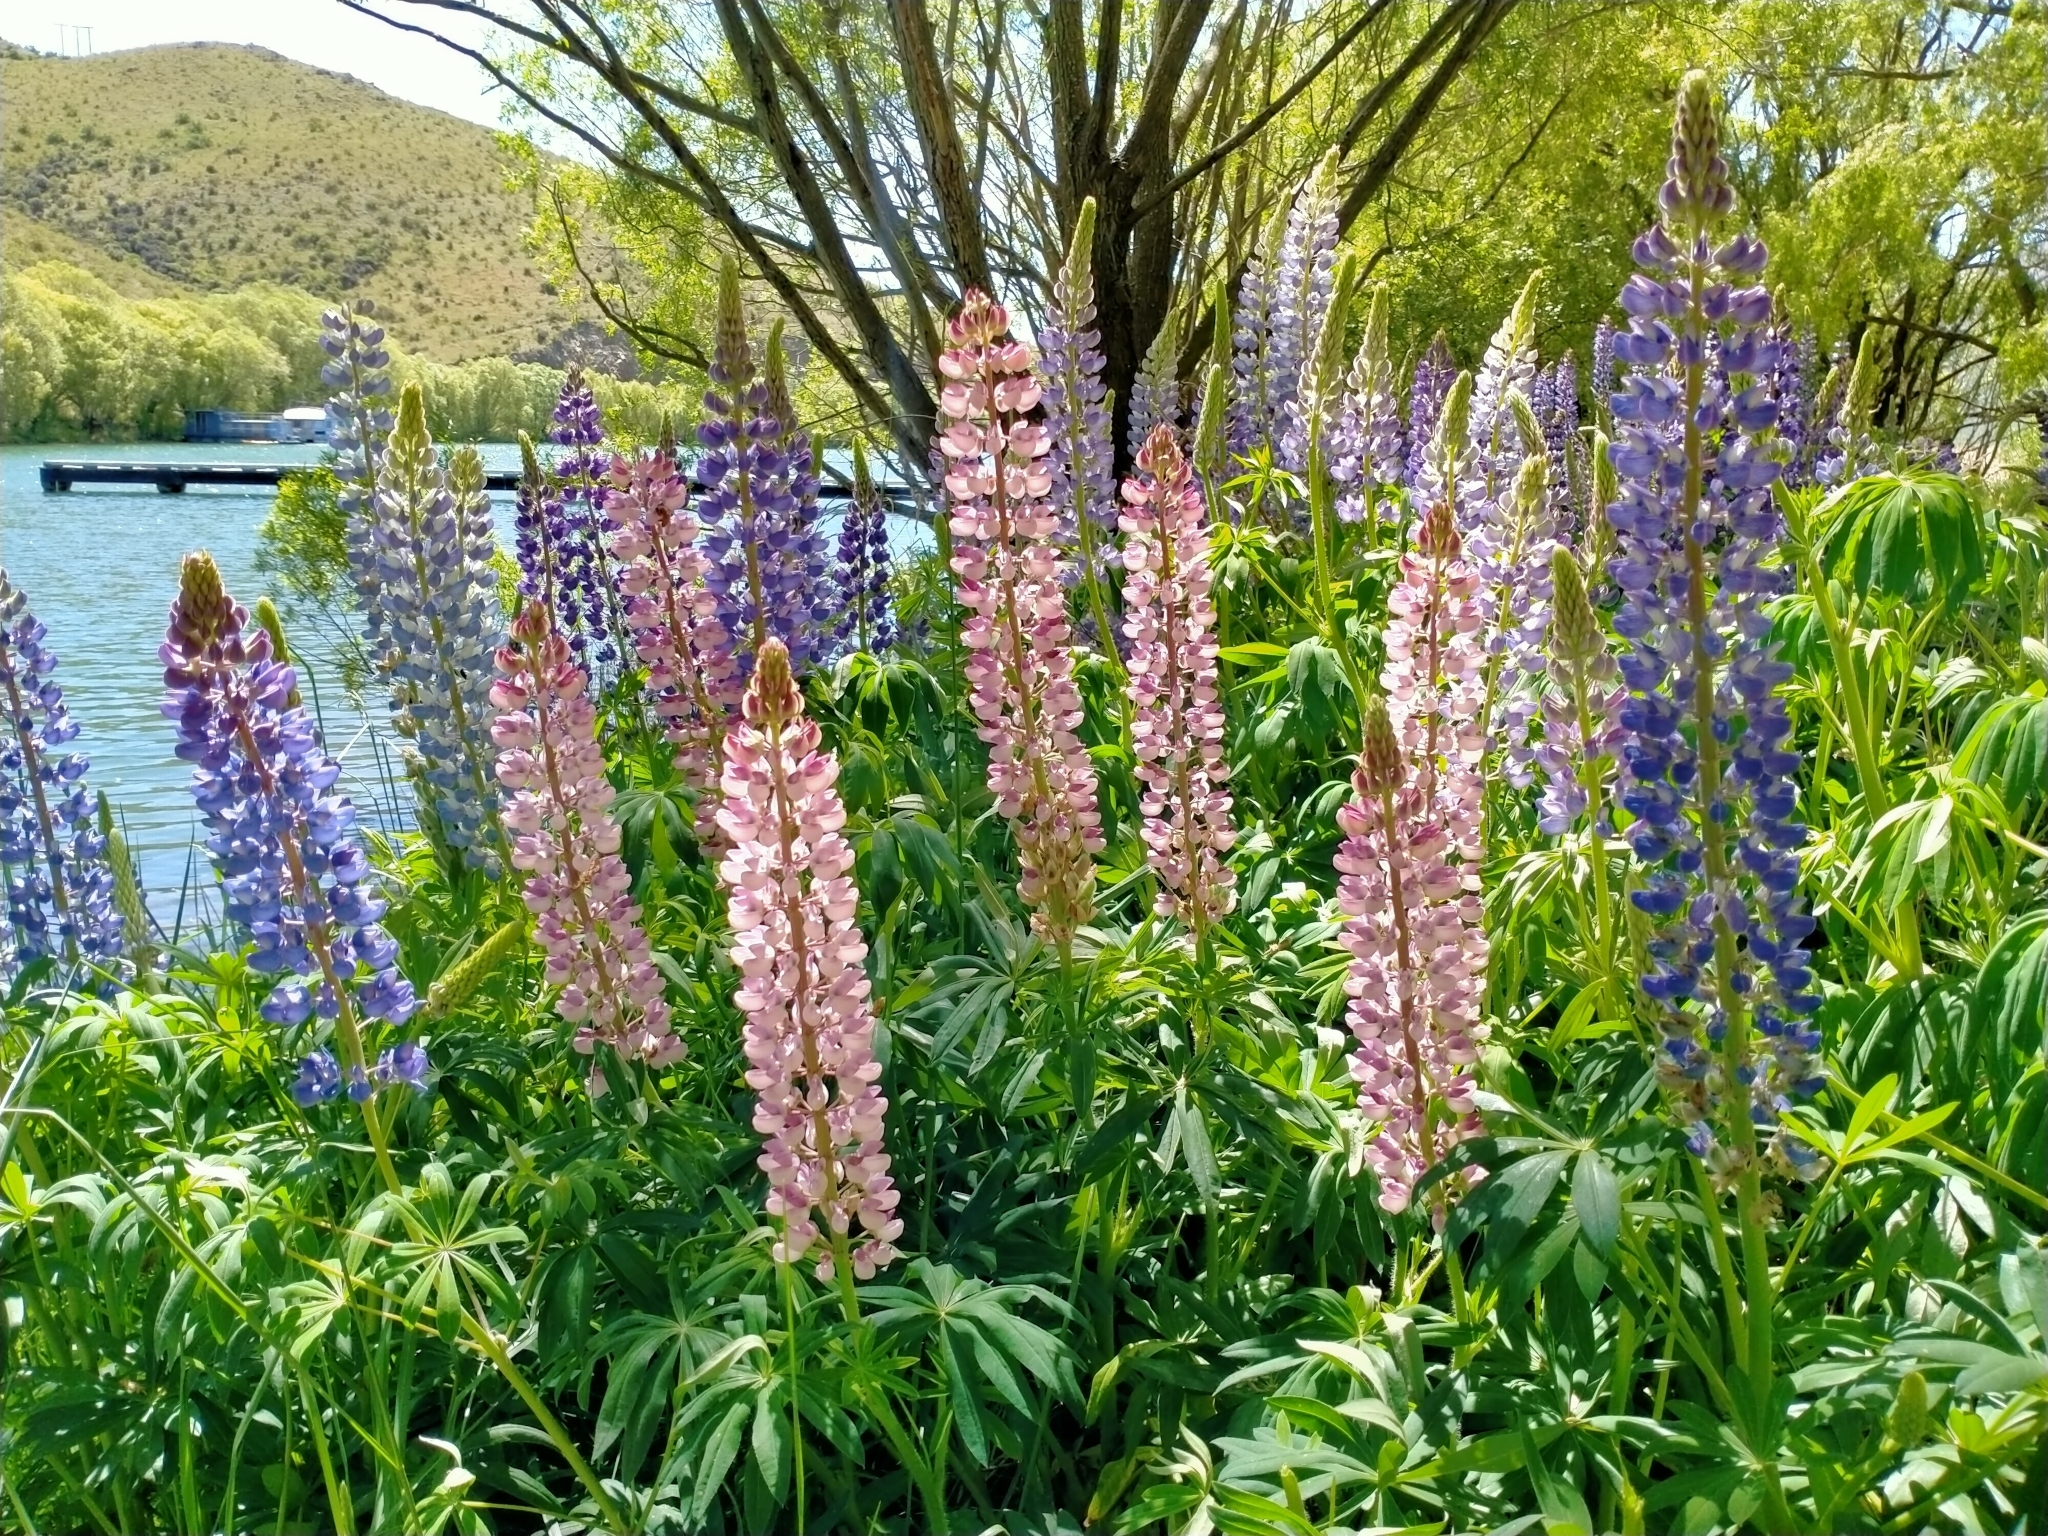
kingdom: Plantae
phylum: Tracheophyta
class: Magnoliopsida
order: Fabales
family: Fabaceae
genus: Lupinus
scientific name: Lupinus polyphyllus
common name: Garden lupin
